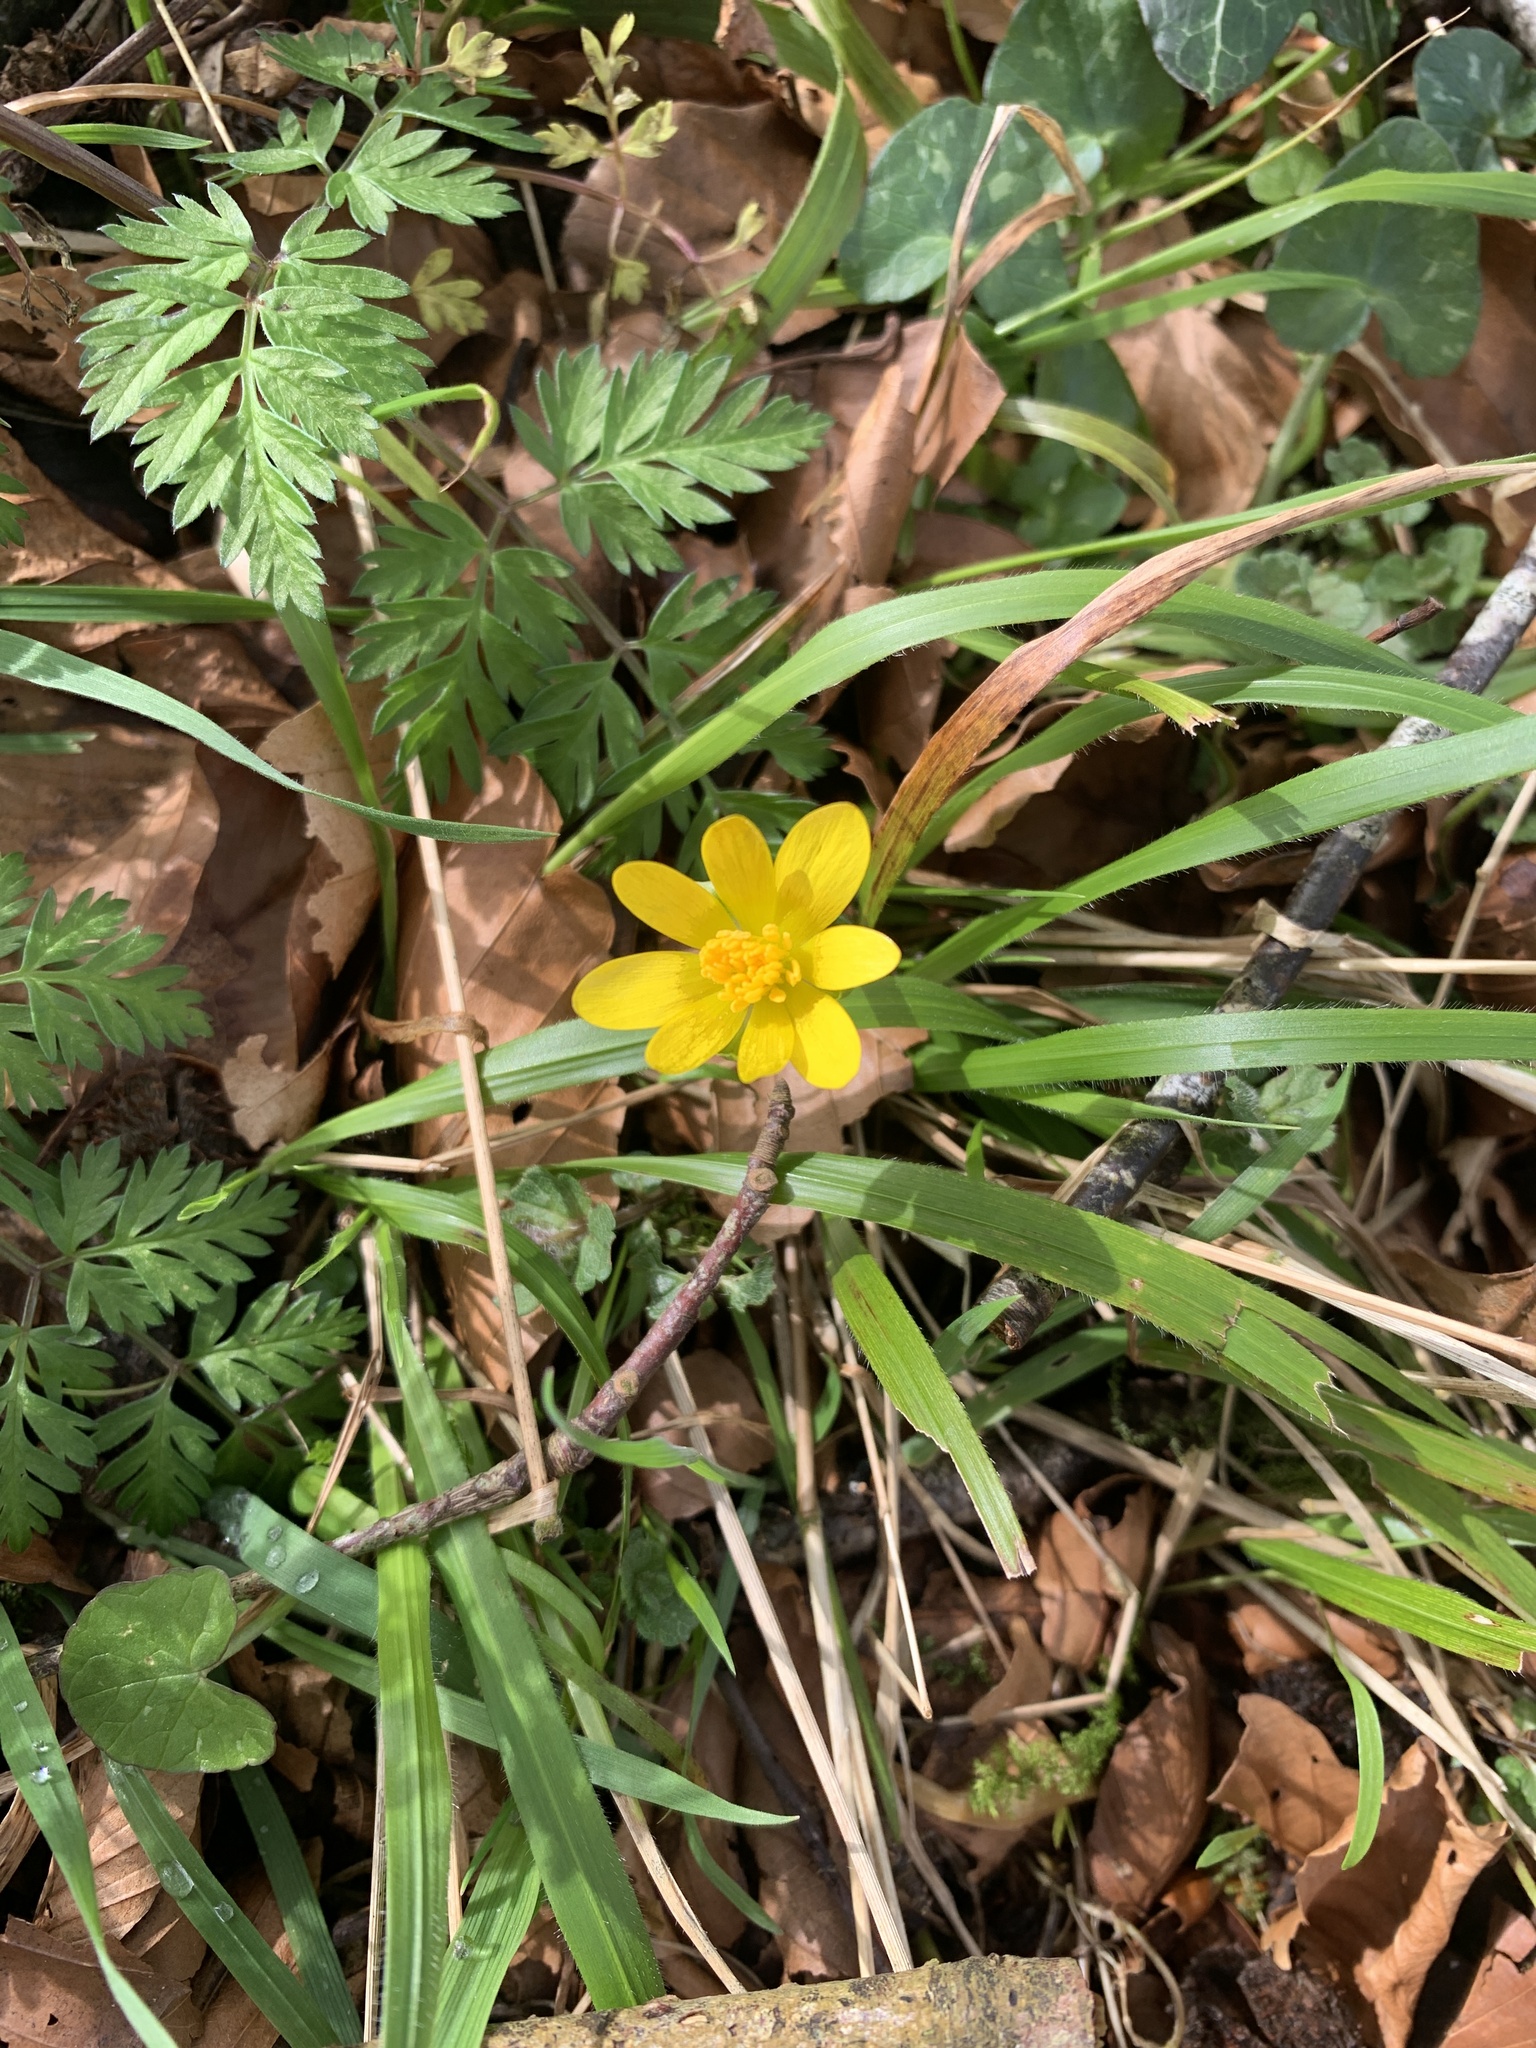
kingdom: Plantae
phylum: Tracheophyta
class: Magnoliopsida
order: Ranunculales
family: Ranunculaceae
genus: Ficaria
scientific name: Ficaria verna
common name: Lesser celandine
